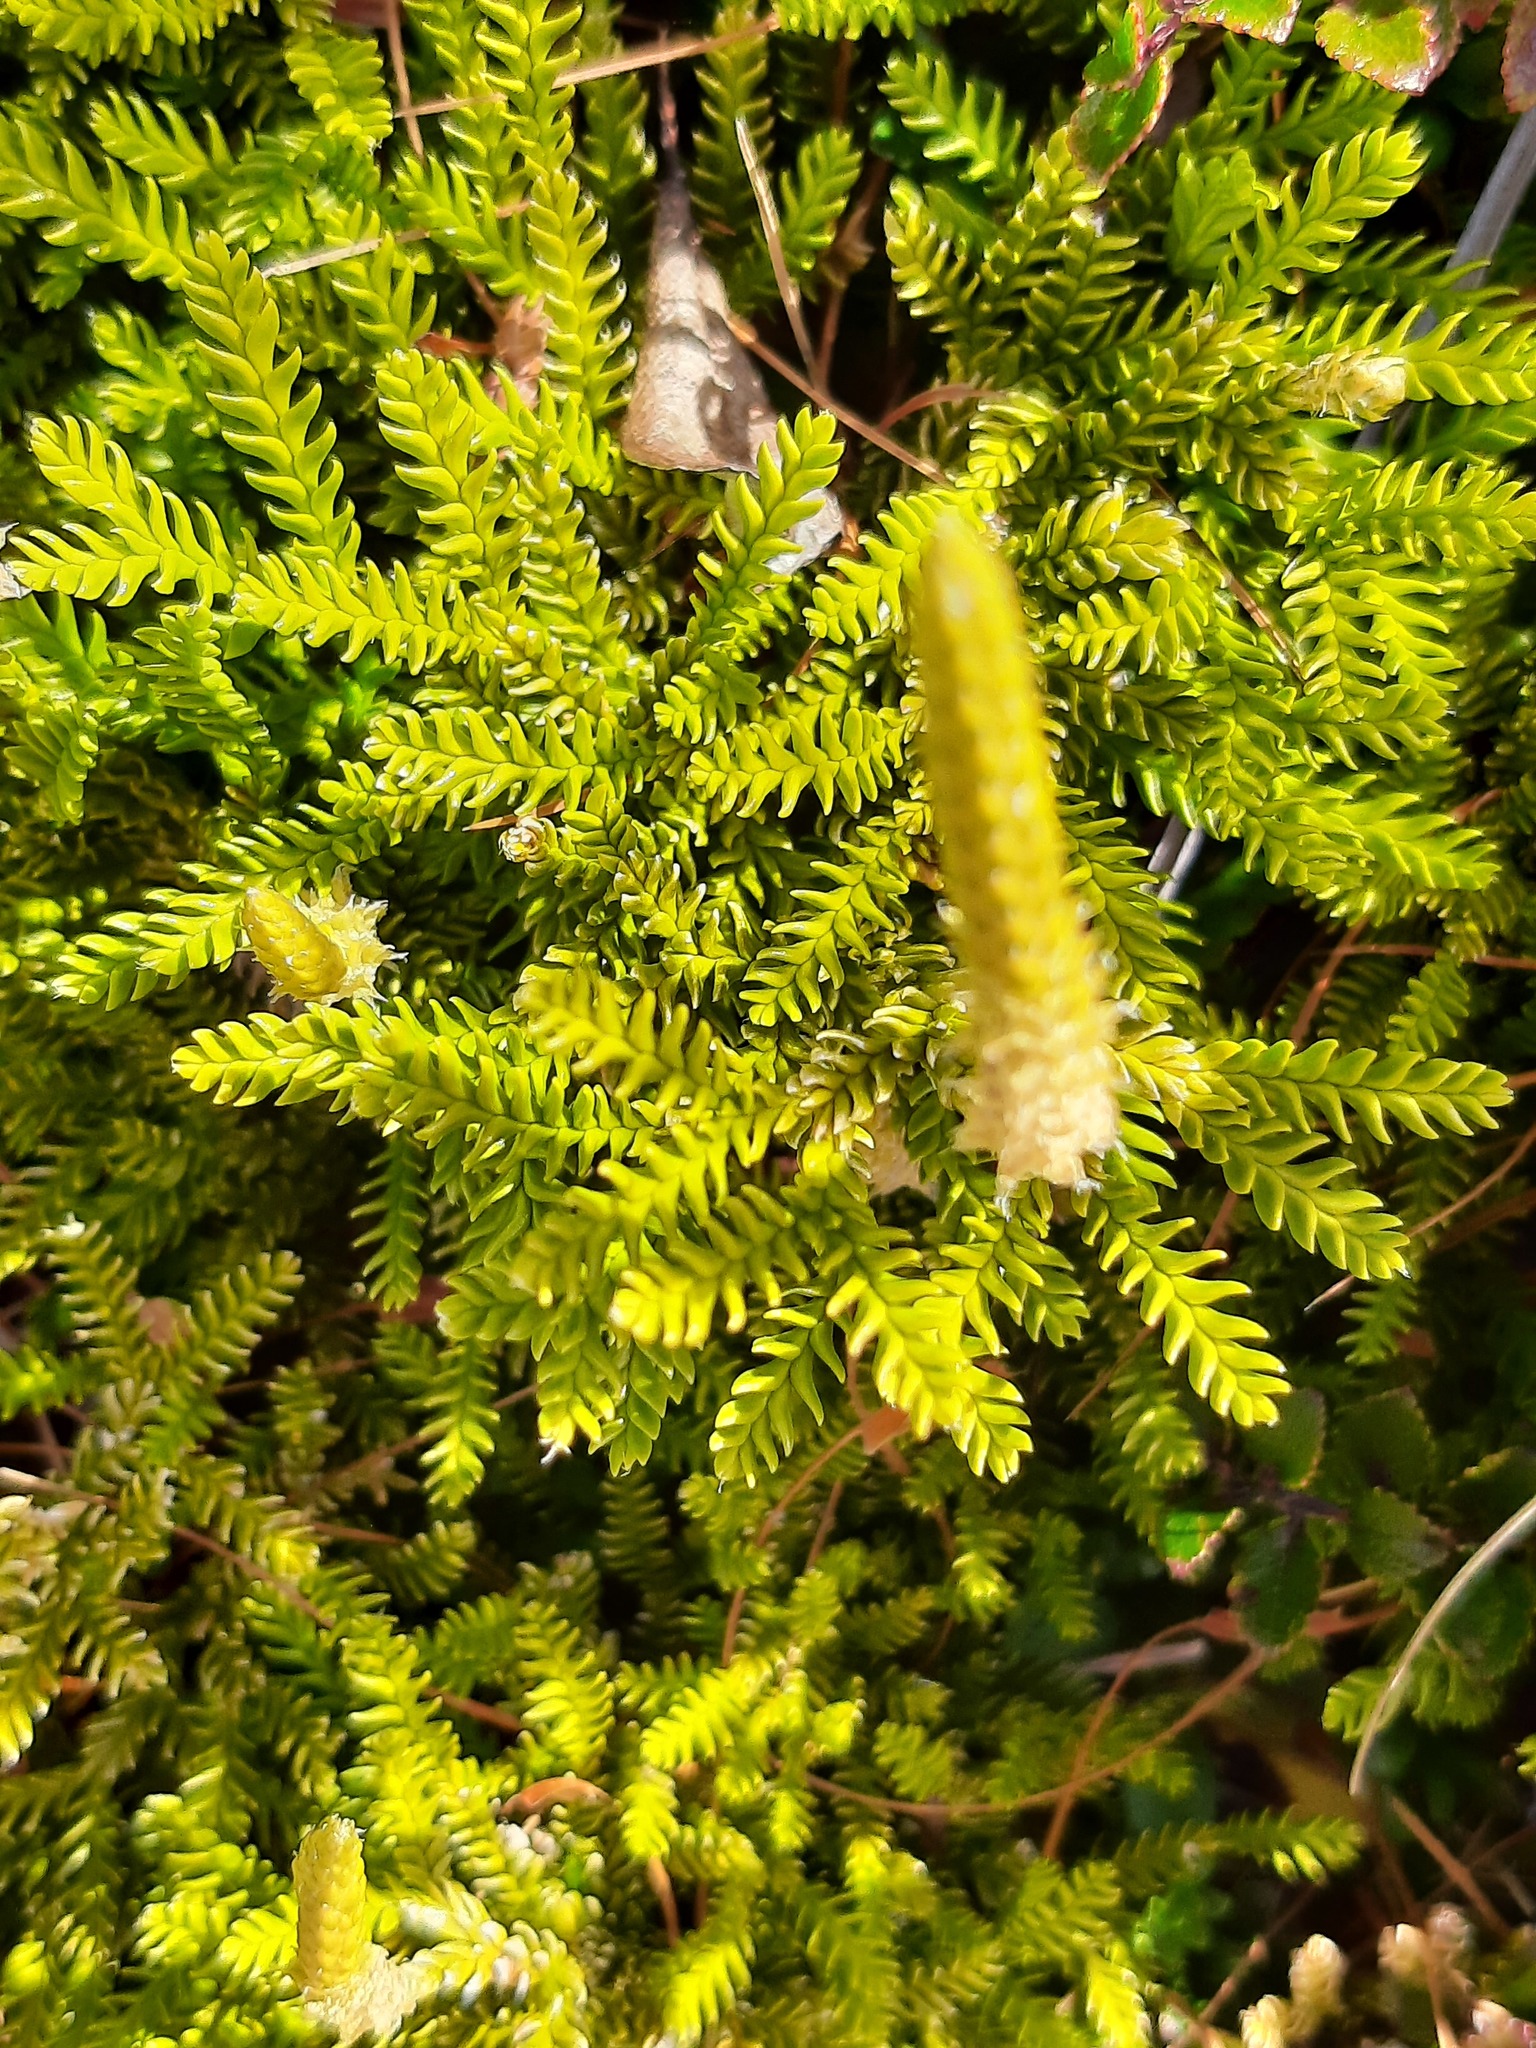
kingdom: Plantae
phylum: Tracheophyta
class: Lycopodiopsida
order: Lycopodiales
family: Lycopodiaceae
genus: Diphasium
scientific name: Diphasium scariosum
